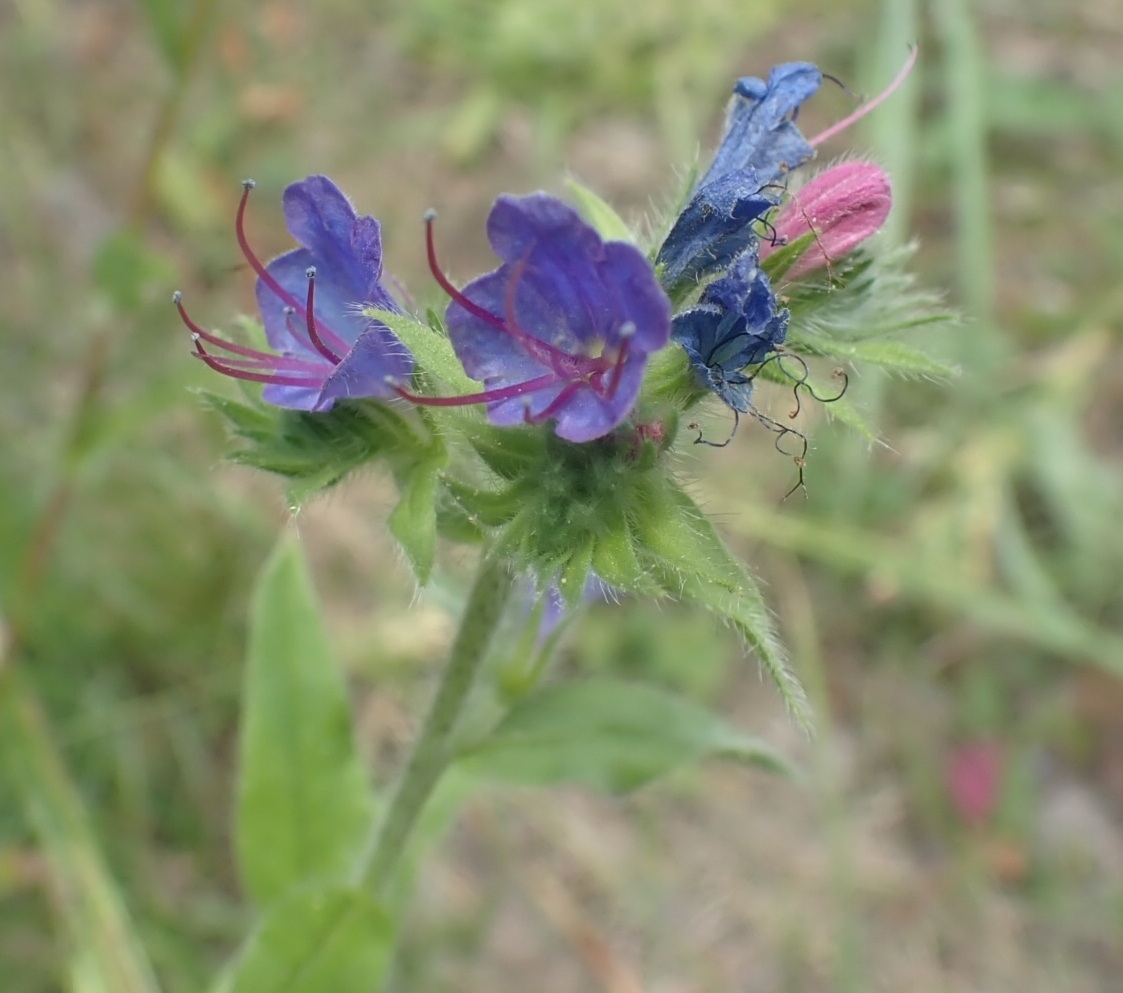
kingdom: Plantae
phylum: Tracheophyta
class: Magnoliopsida
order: Boraginales
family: Boraginaceae
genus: Echium
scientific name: Echium vulgare
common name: Common viper's bugloss
